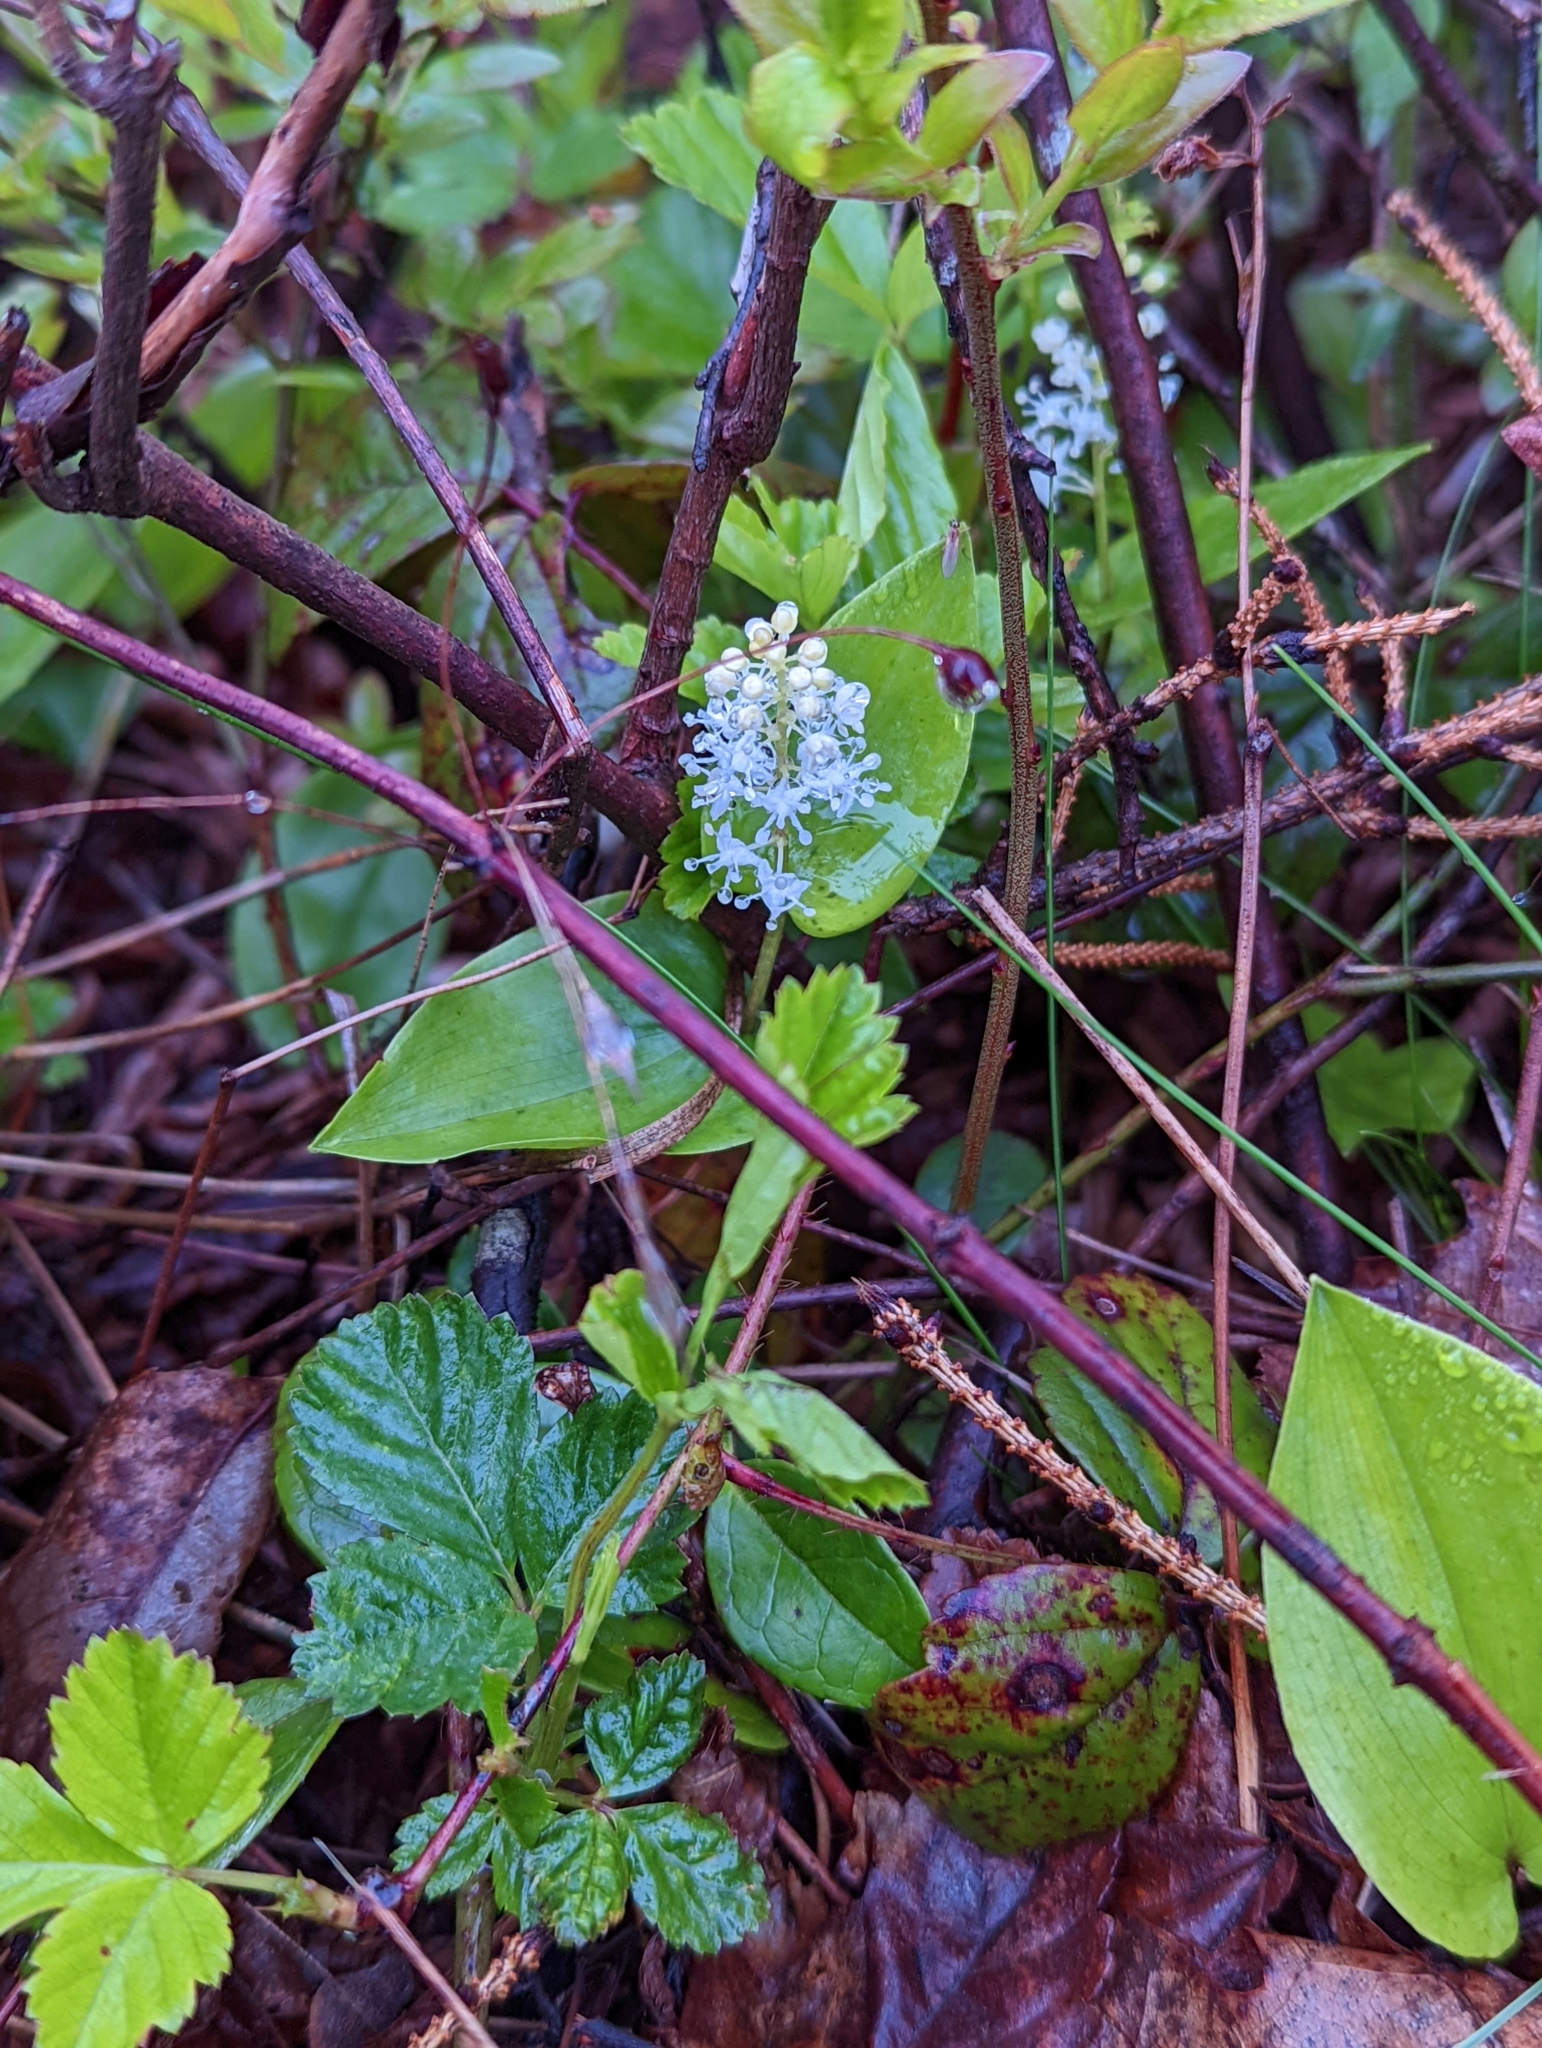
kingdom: Plantae
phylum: Tracheophyta
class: Liliopsida
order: Asparagales
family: Asparagaceae
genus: Maianthemum
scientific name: Maianthemum canadense
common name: False lily-of-the-valley
